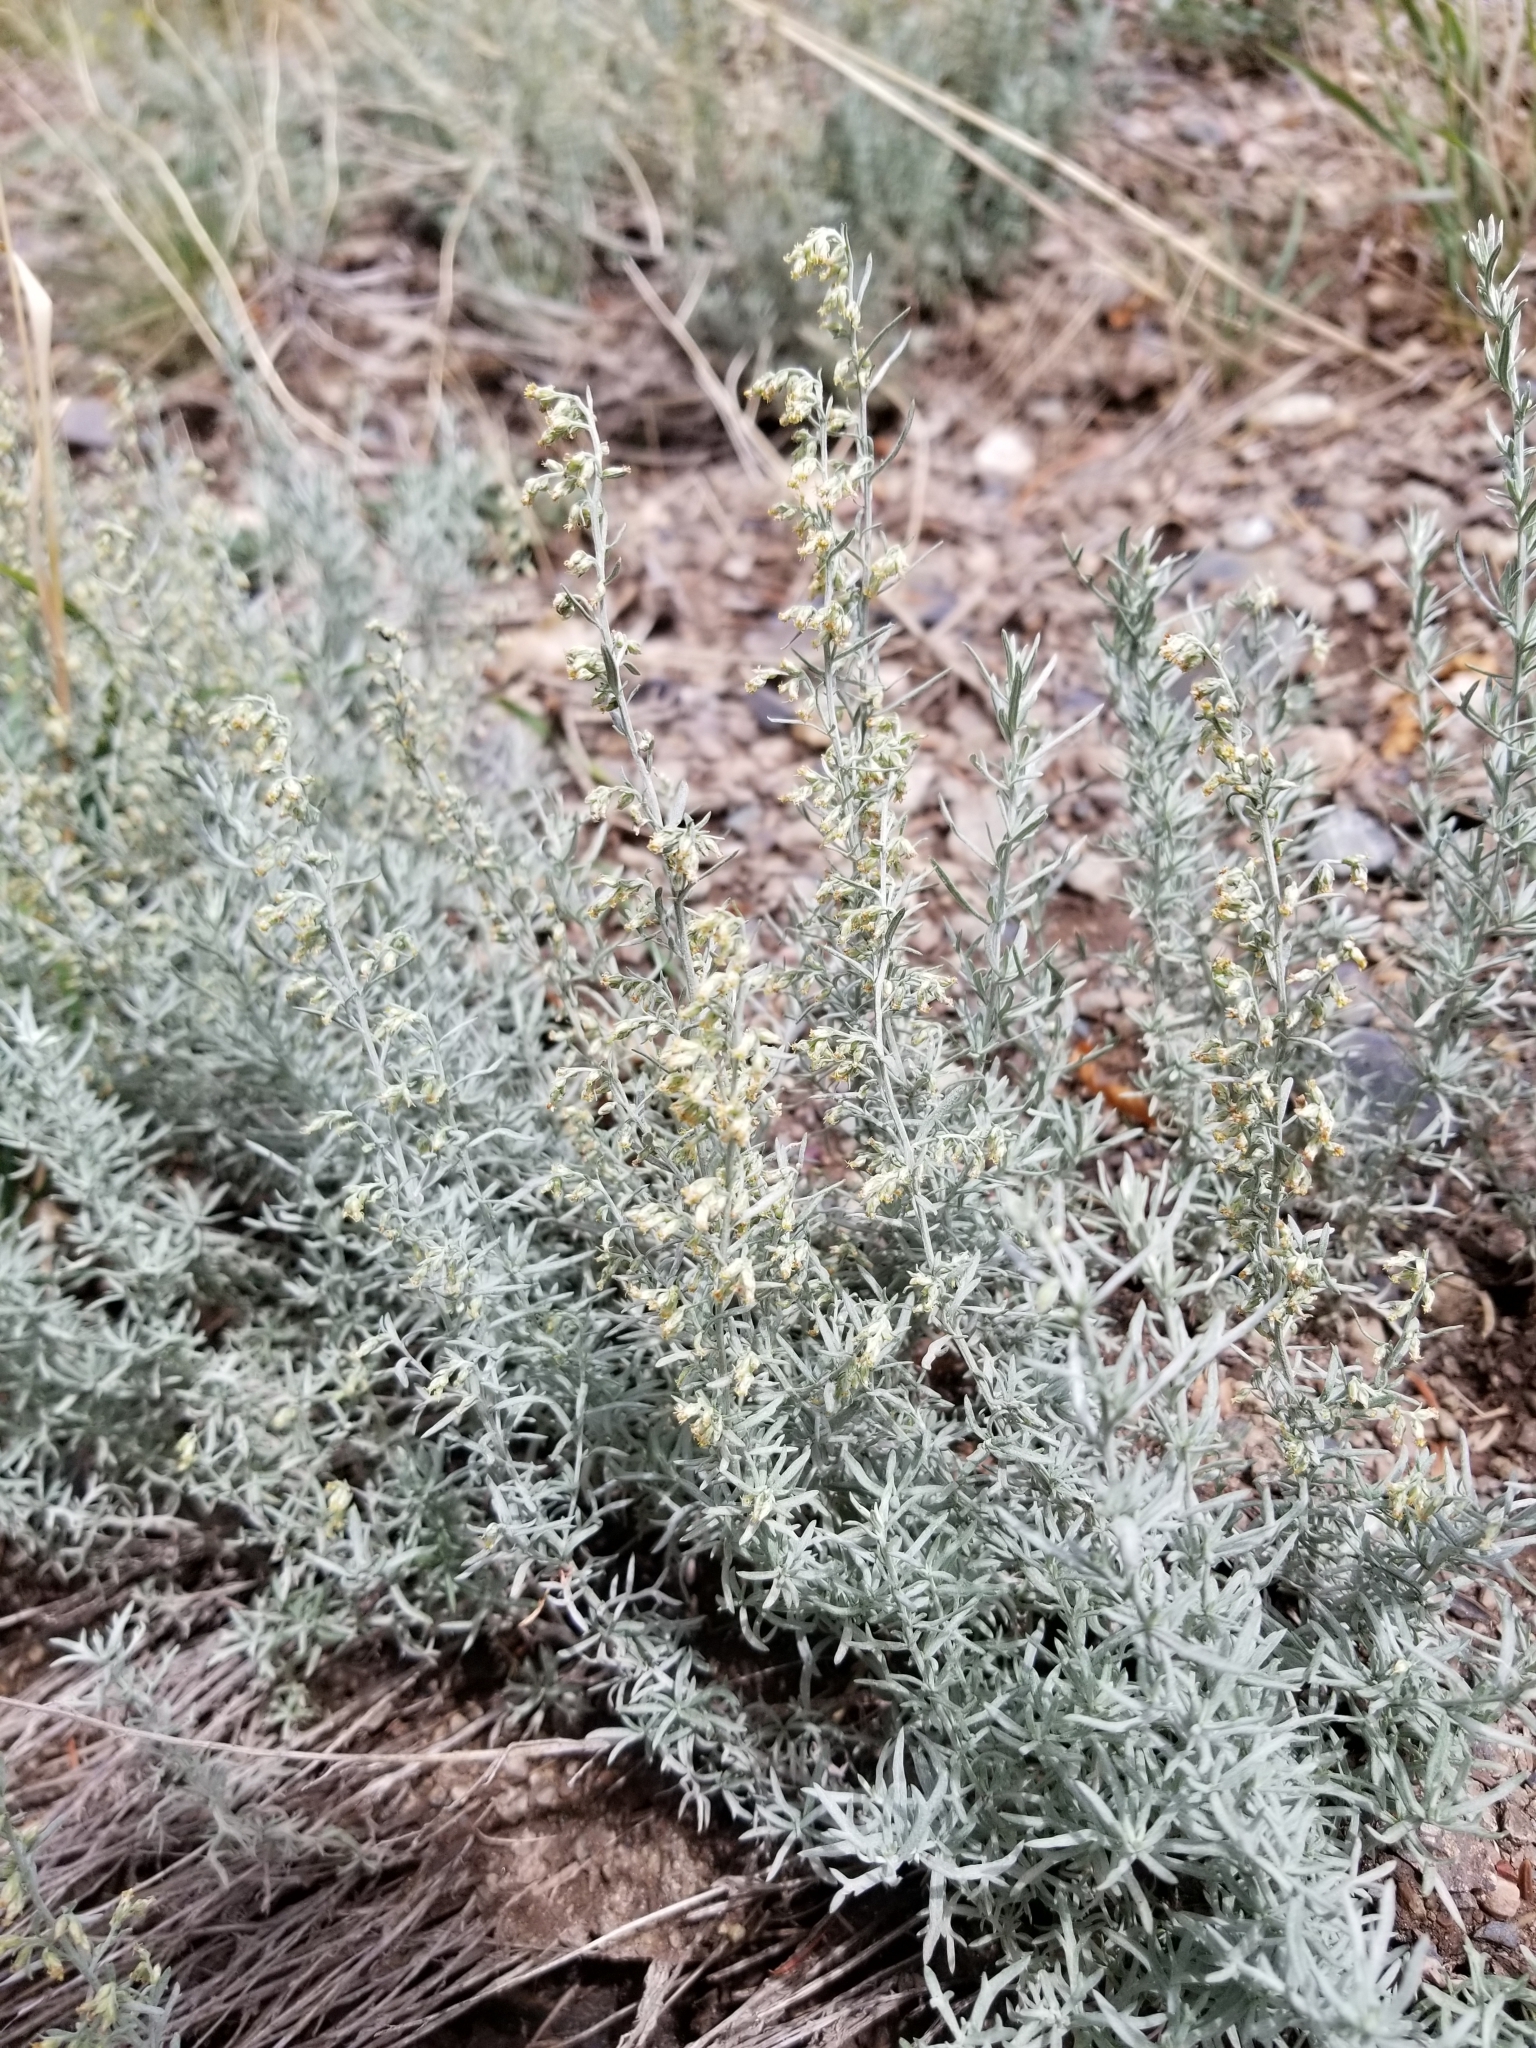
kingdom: Plantae
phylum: Tracheophyta
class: Magnoliopsida
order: Asterales
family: Asteraceae
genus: Artemisia
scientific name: Artemisia carruthii
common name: Carruth wormwood
